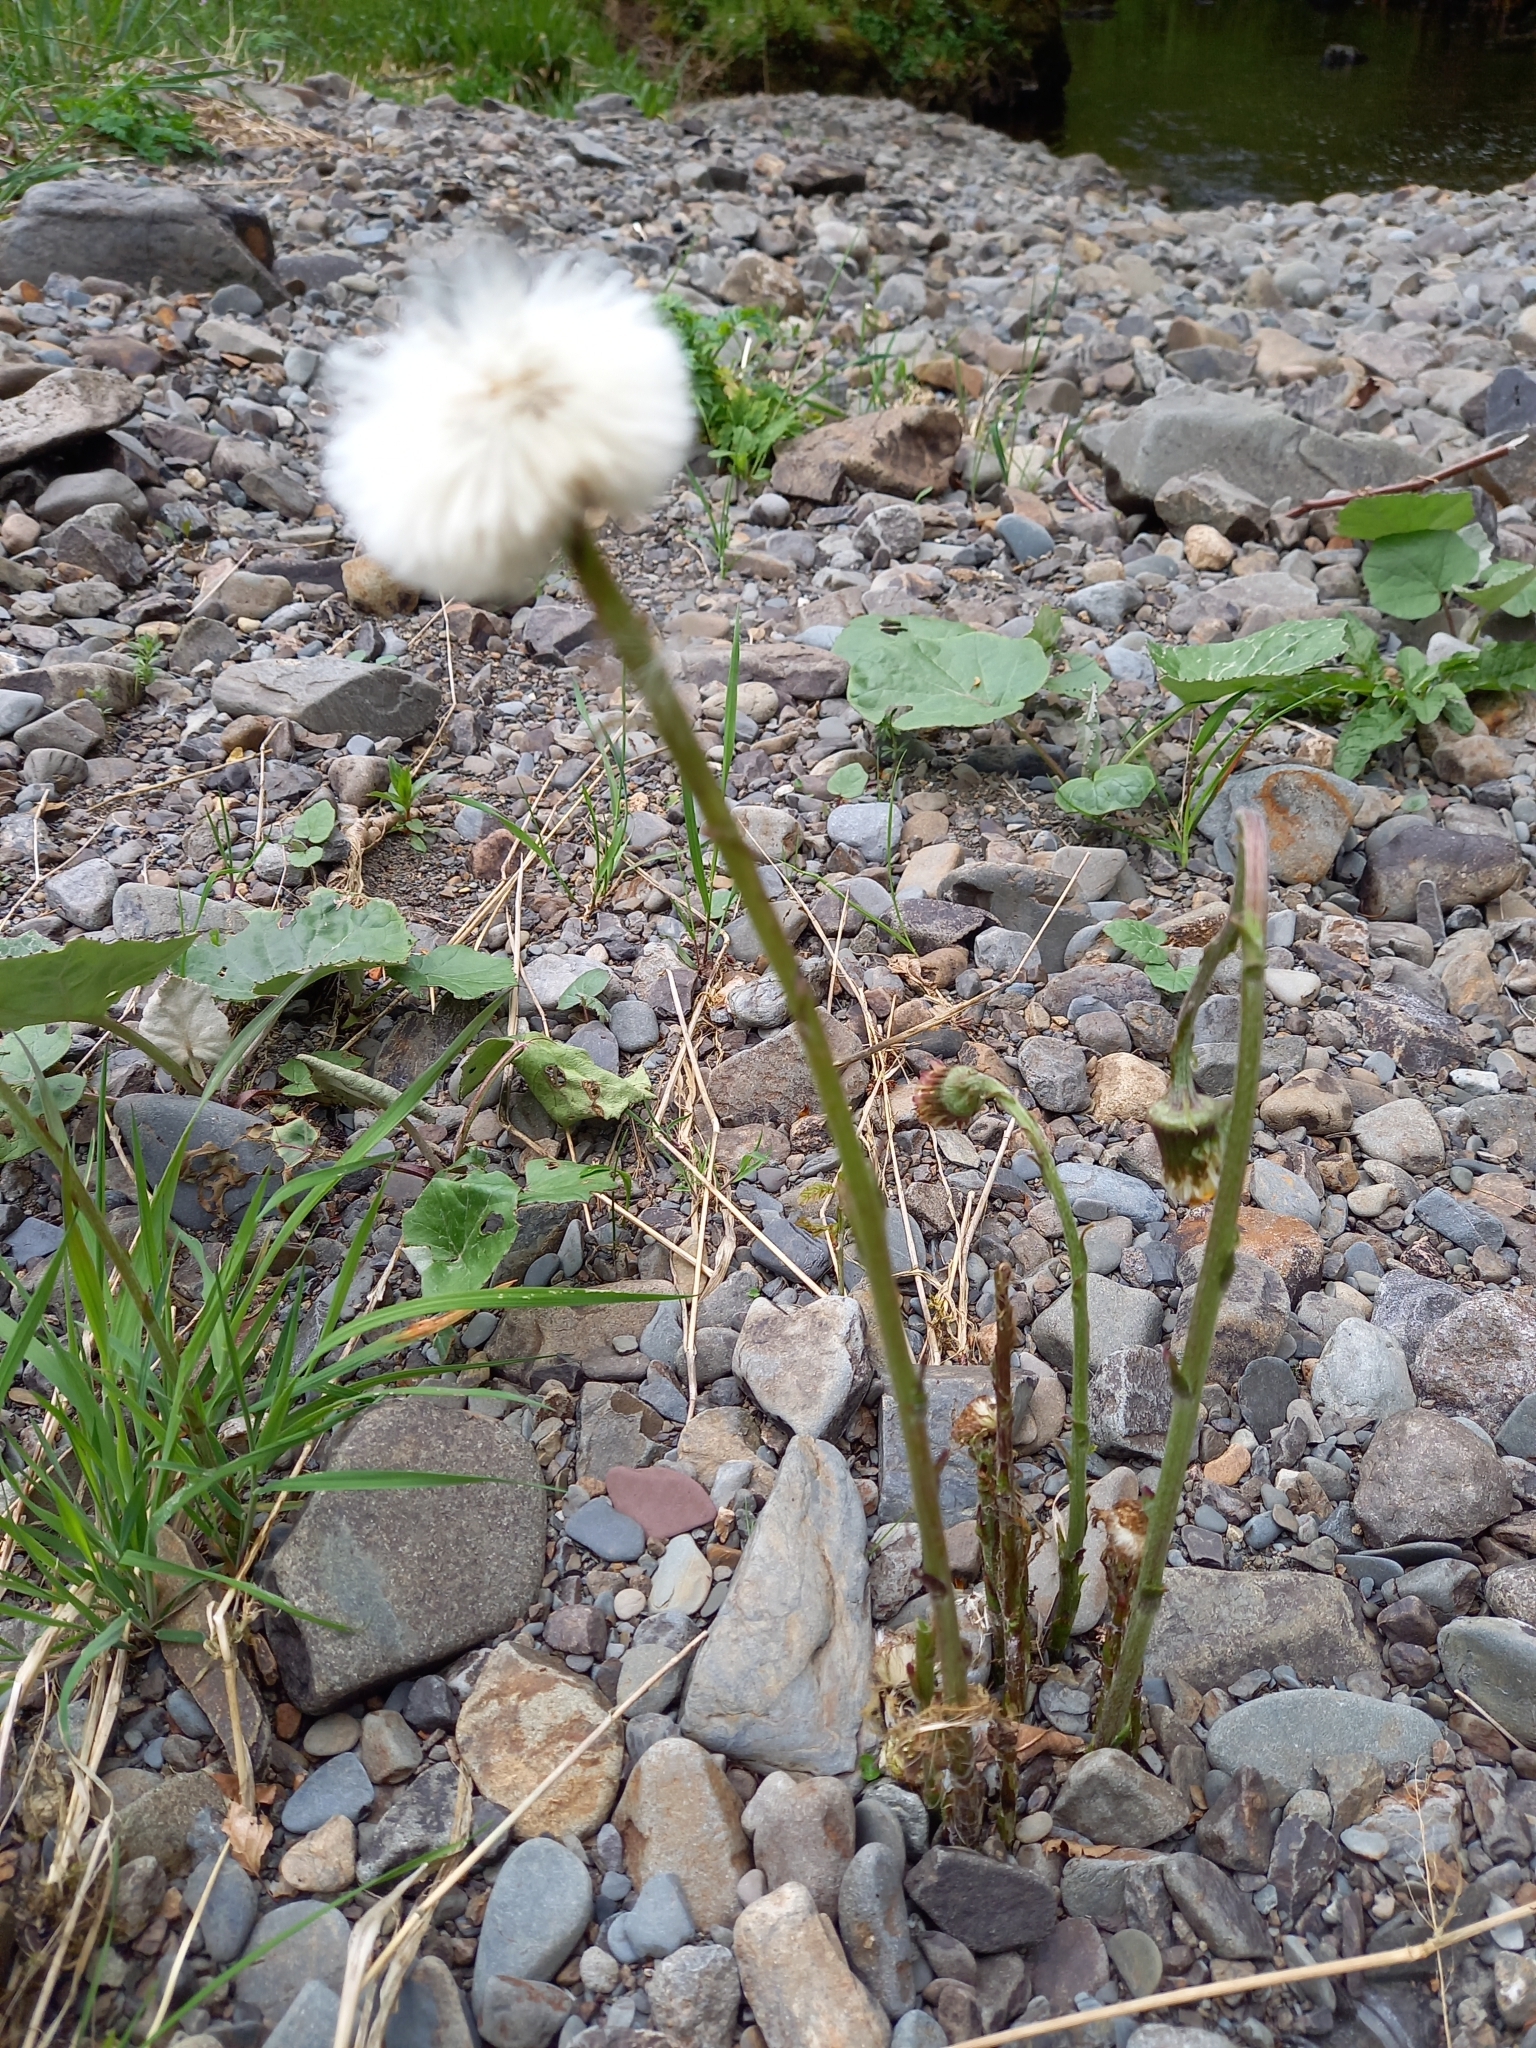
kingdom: Plantae
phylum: Tracheophyta
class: Magnoliopsida
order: Asterales
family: Asteraceae
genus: Tussilago
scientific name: Tussilago farfara
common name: Coltsfoot
